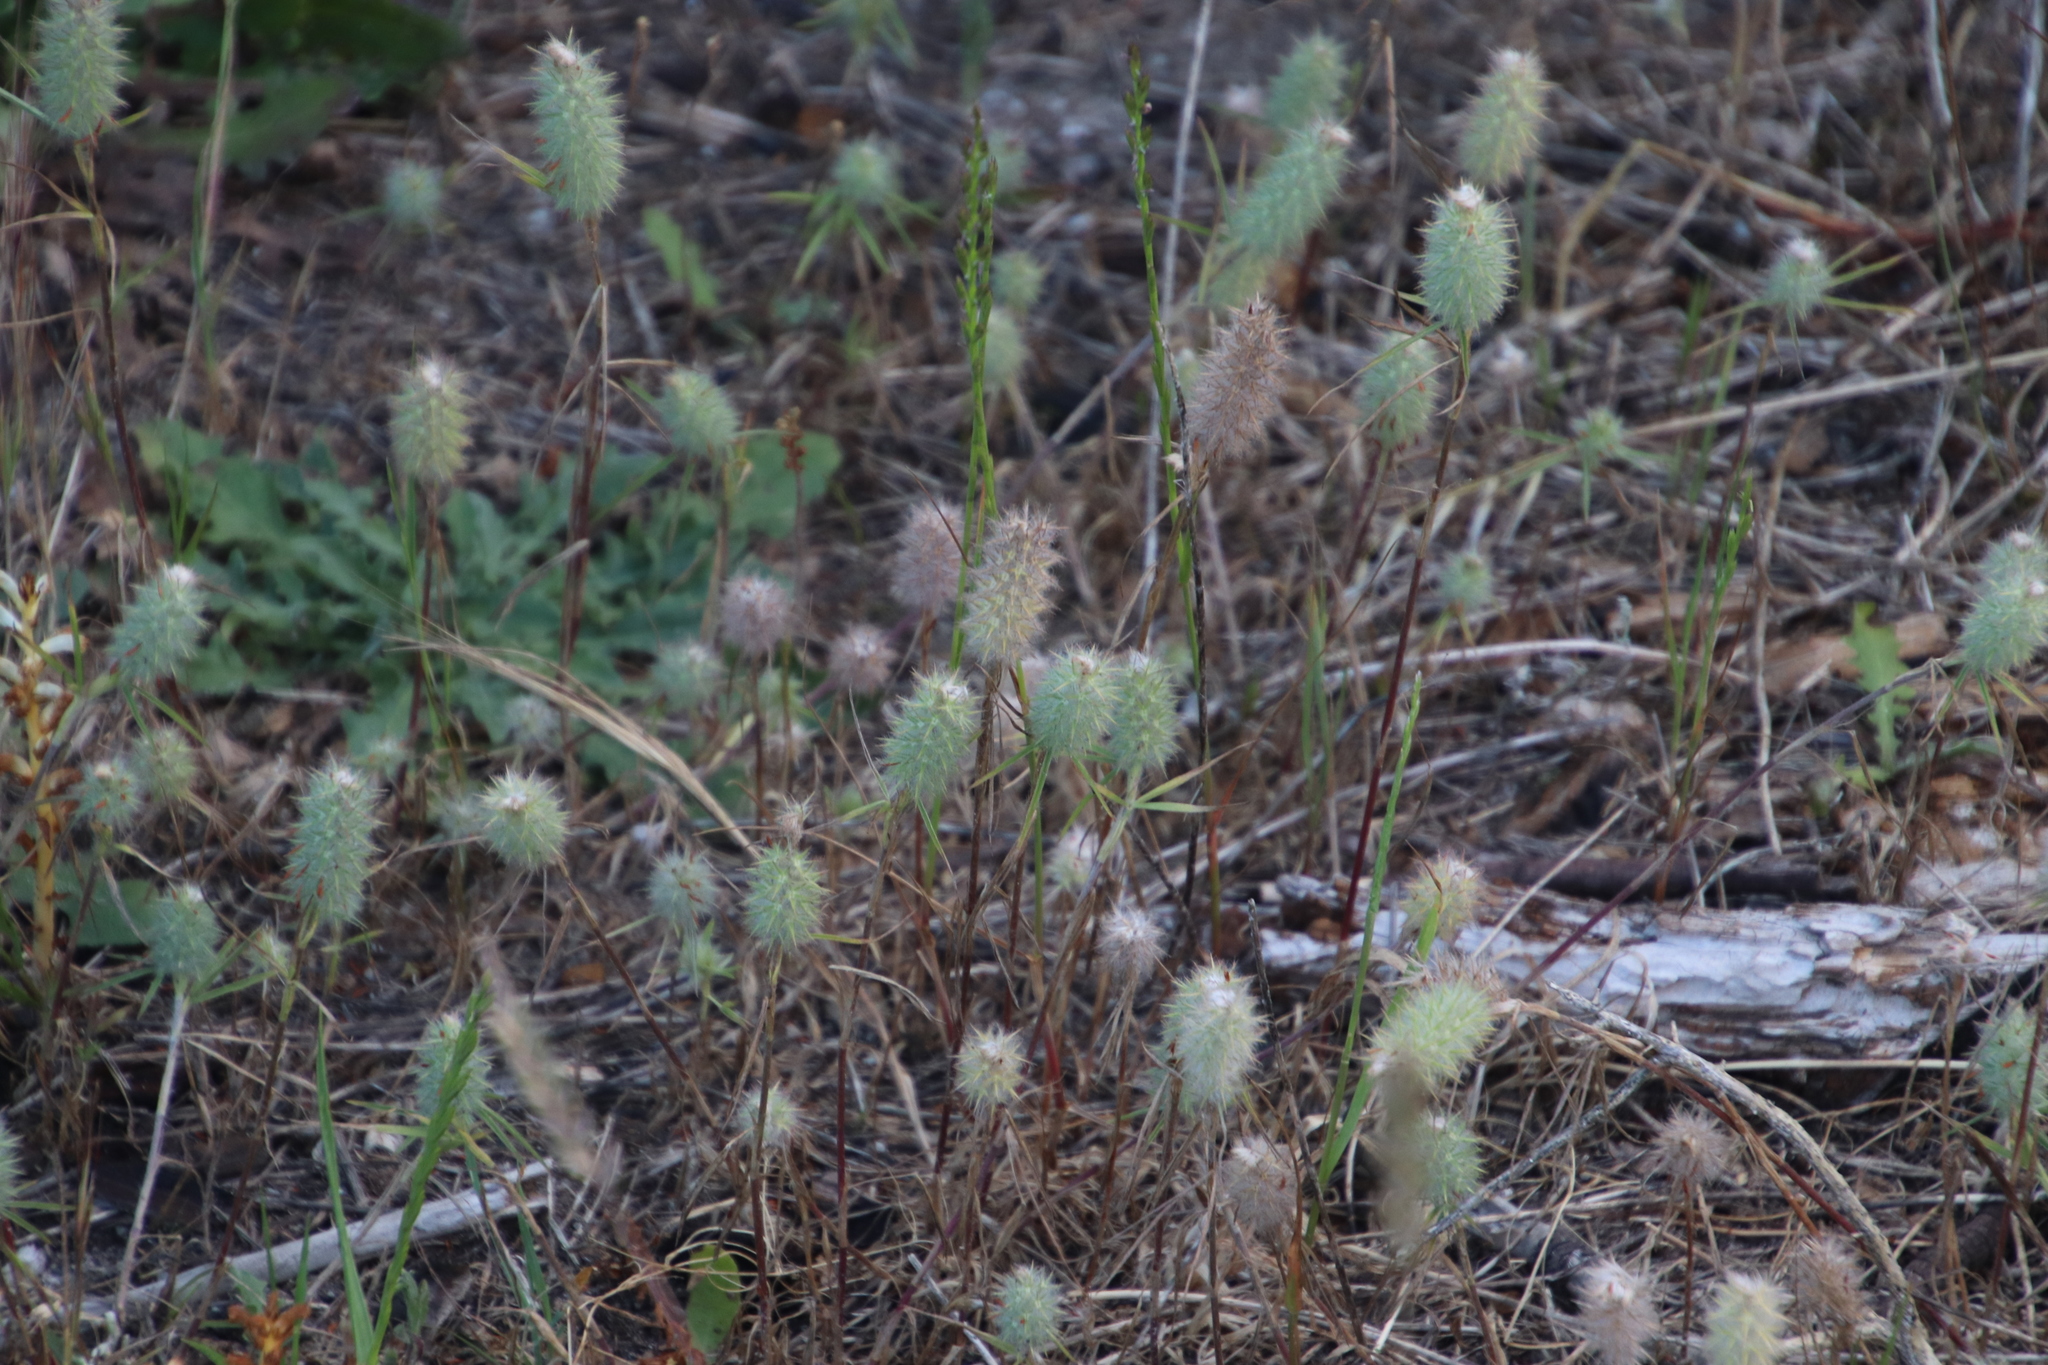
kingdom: Plantae
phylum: Tracheophyta
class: Magnoliopsida
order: Fabales
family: Fabaceae
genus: Trifolium
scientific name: Trifolium angustifolium
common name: Narrow clover
